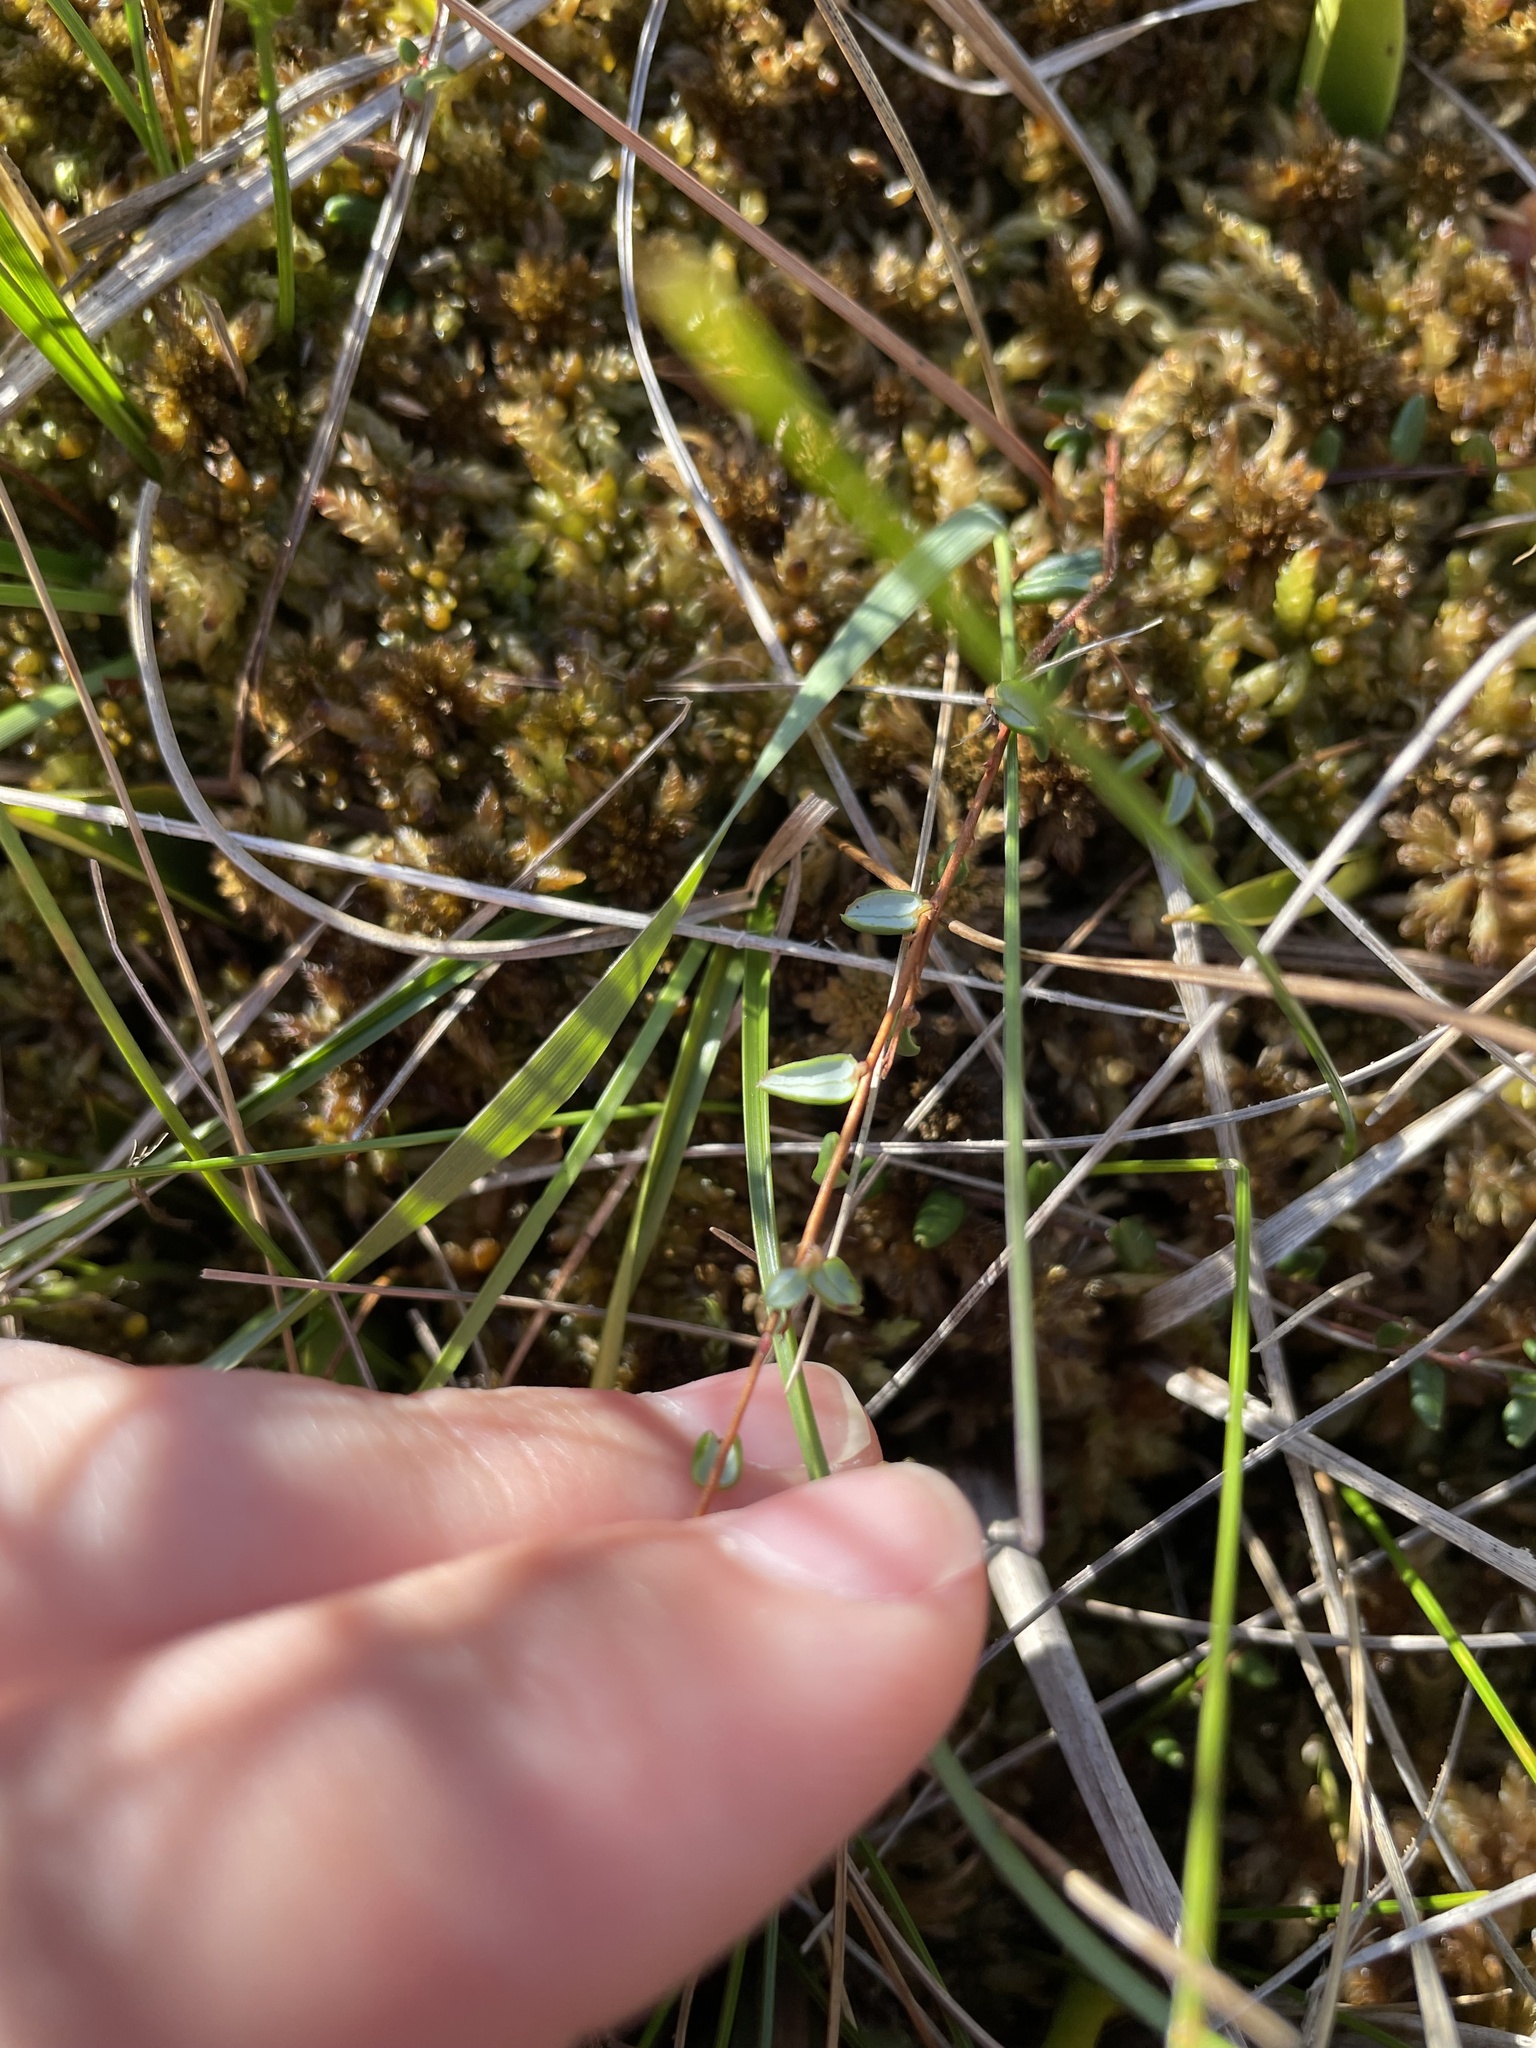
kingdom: Plantae
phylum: Tracheophyta
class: Magnoliopsida
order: Ericales
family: Ericaceae
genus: Vaccinium
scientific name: Vaccinium oxycoccos
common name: Cranberry
